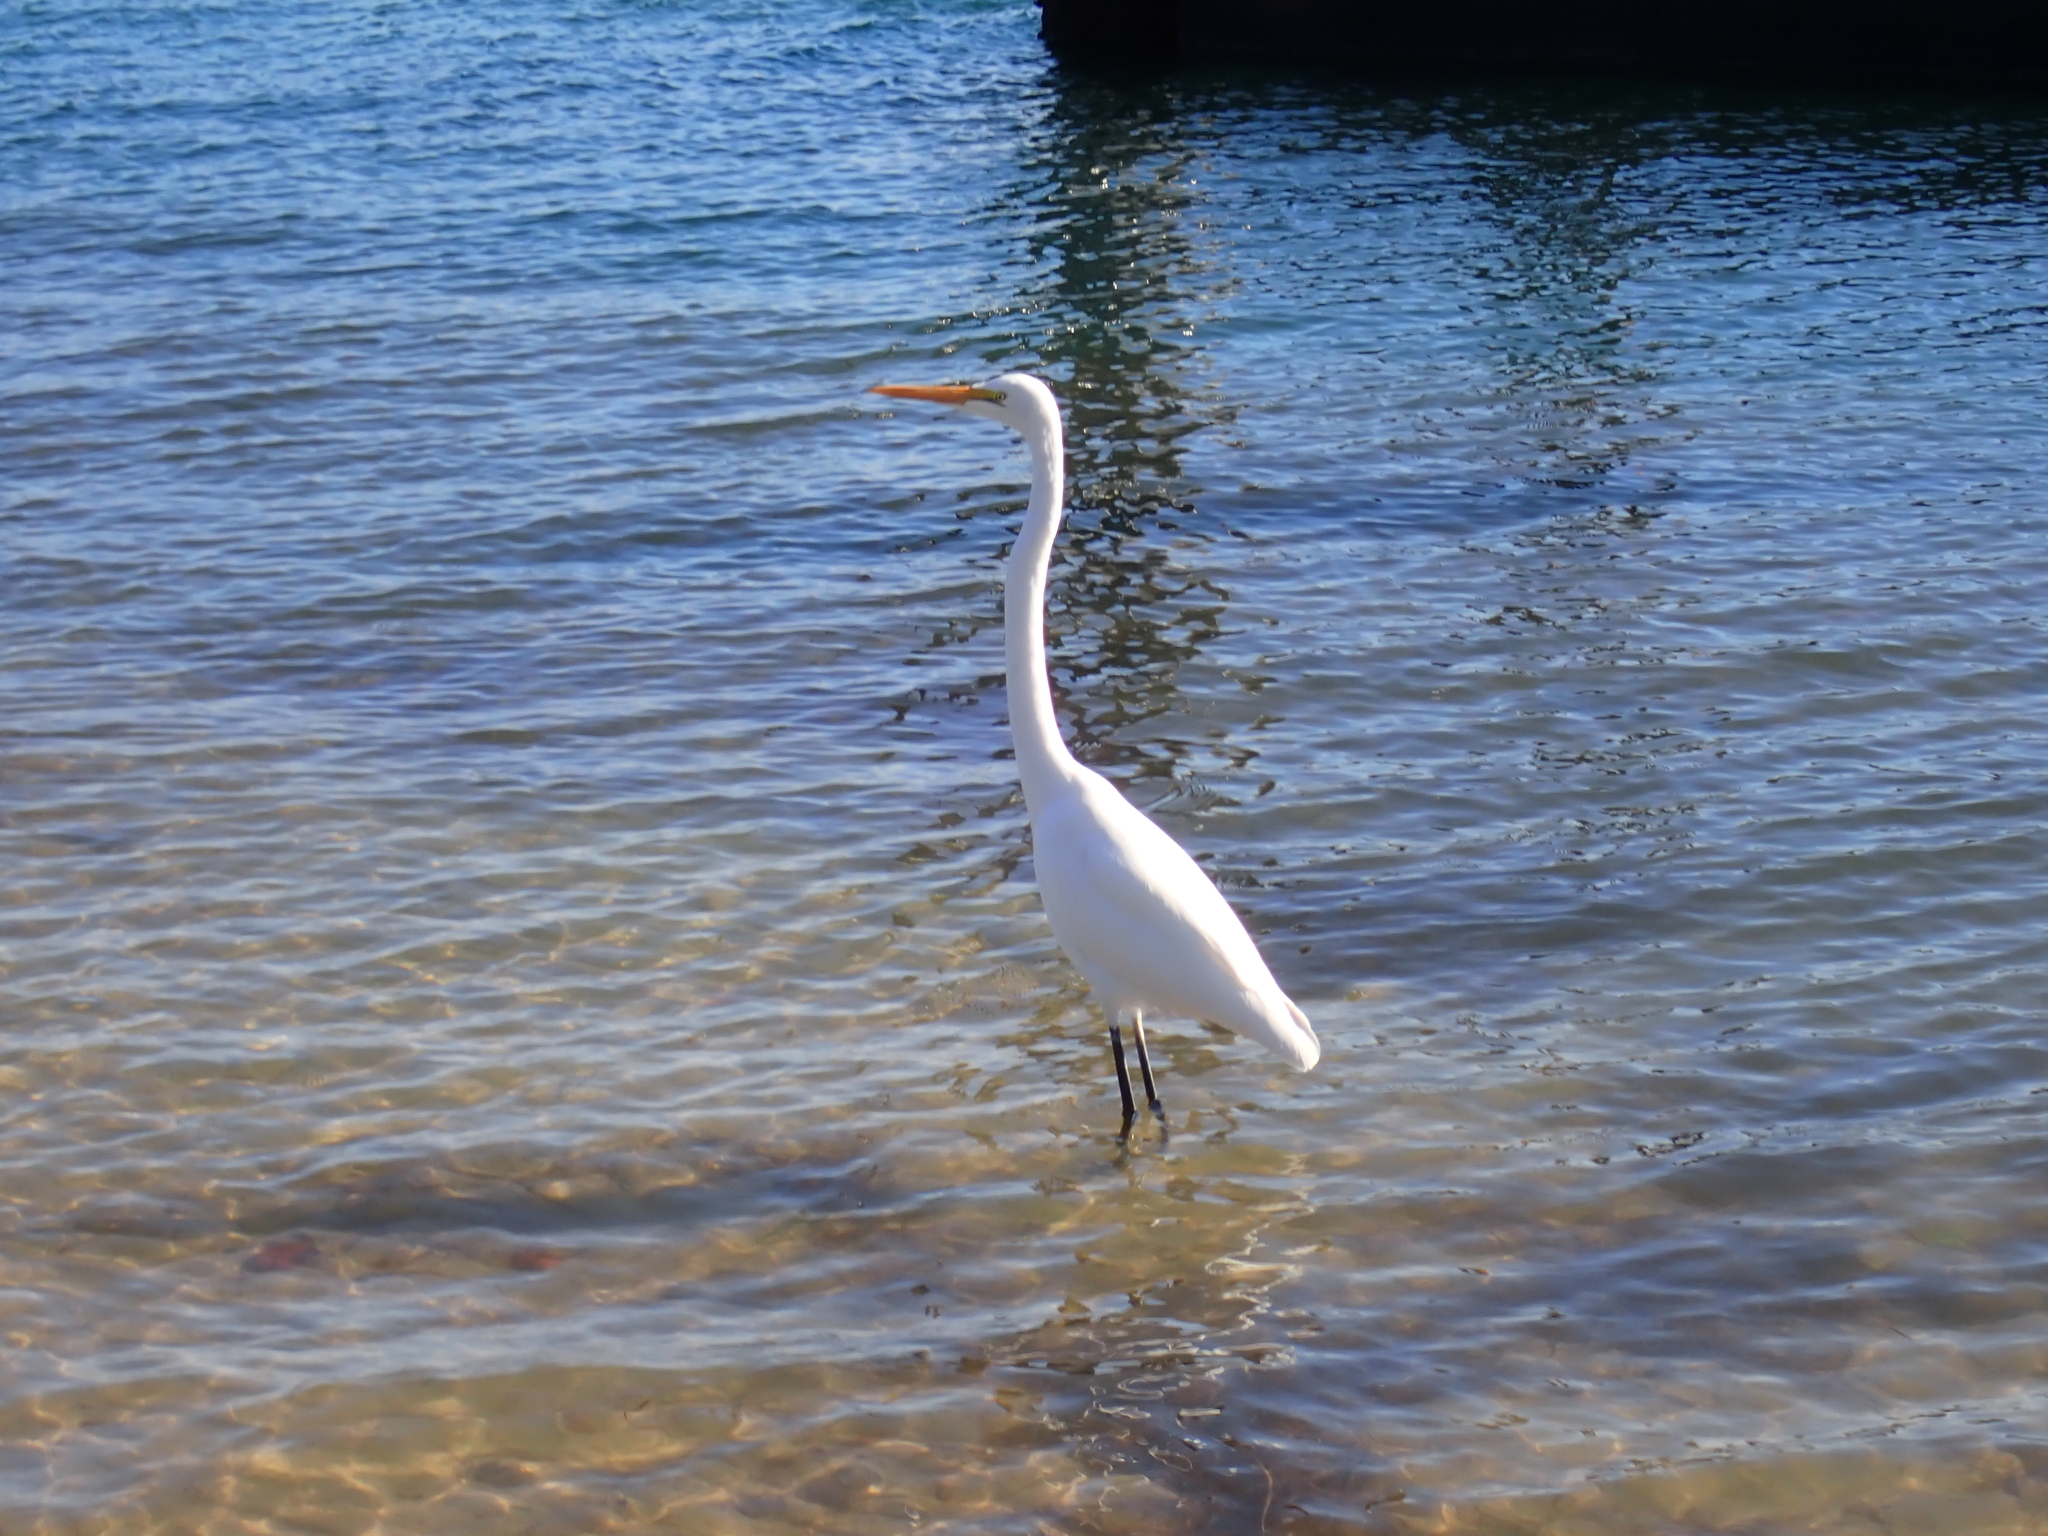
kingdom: Animalia
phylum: Chordata
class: Aves
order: Pelecaniformes
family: Ardeidae
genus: Ardea
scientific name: Ardea alba
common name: Great egret
